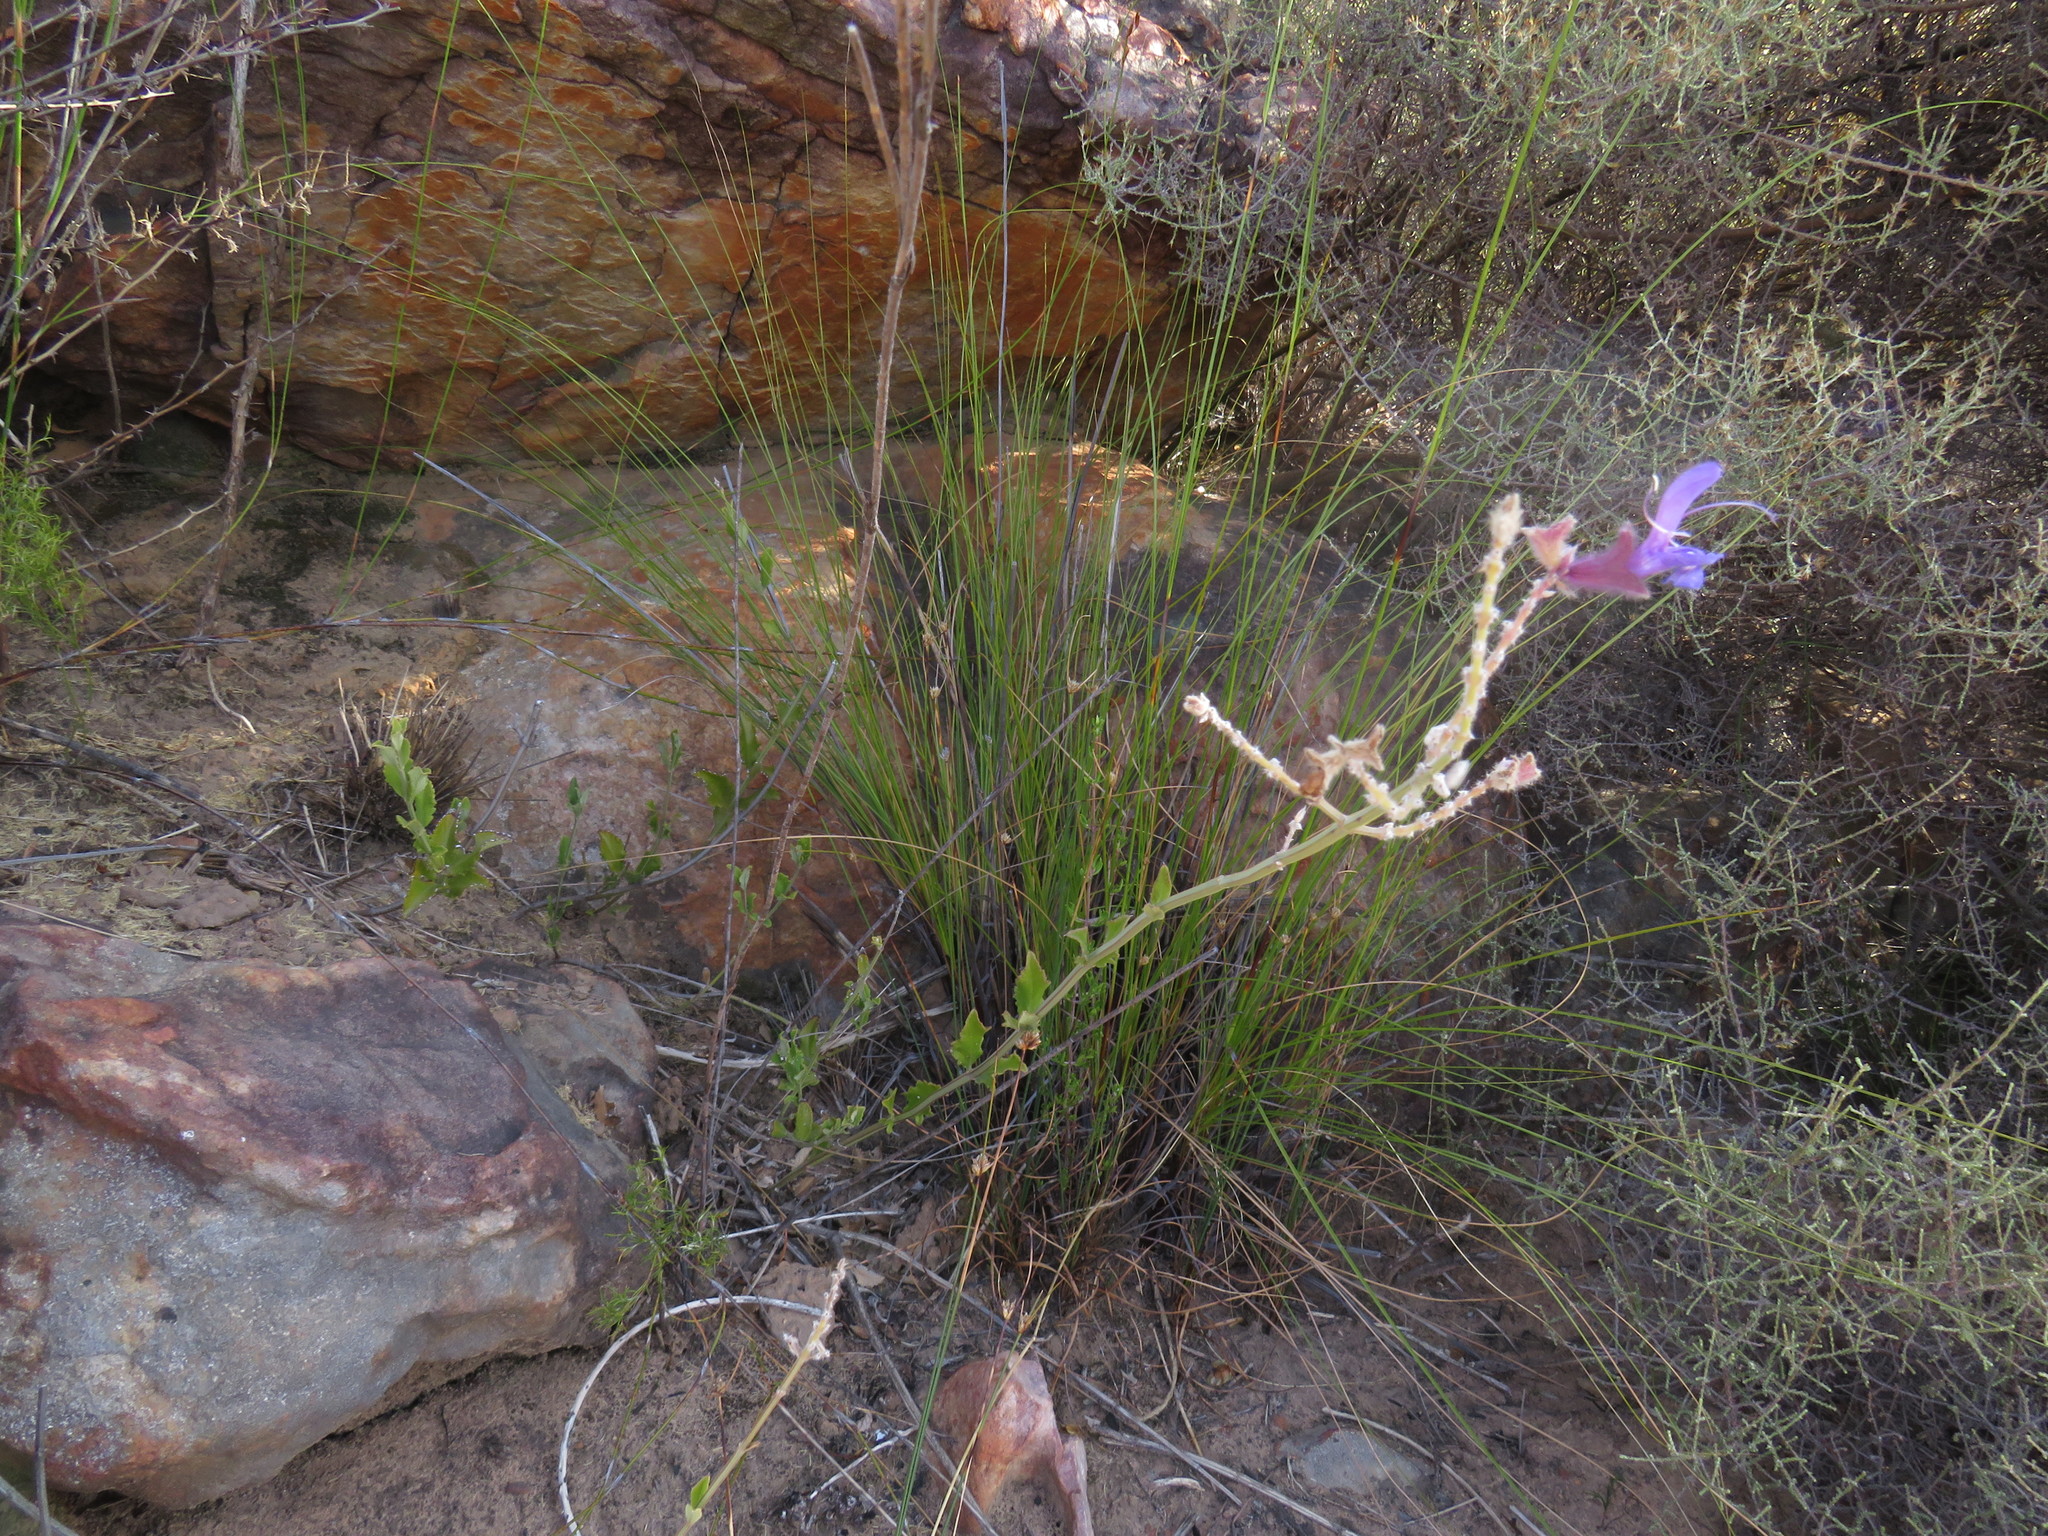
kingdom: Plantae
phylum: Tracheophyta
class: Magnoliopsida
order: Lamiales
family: Lamiaceae
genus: Salvia
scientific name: Salvia albicaulis
